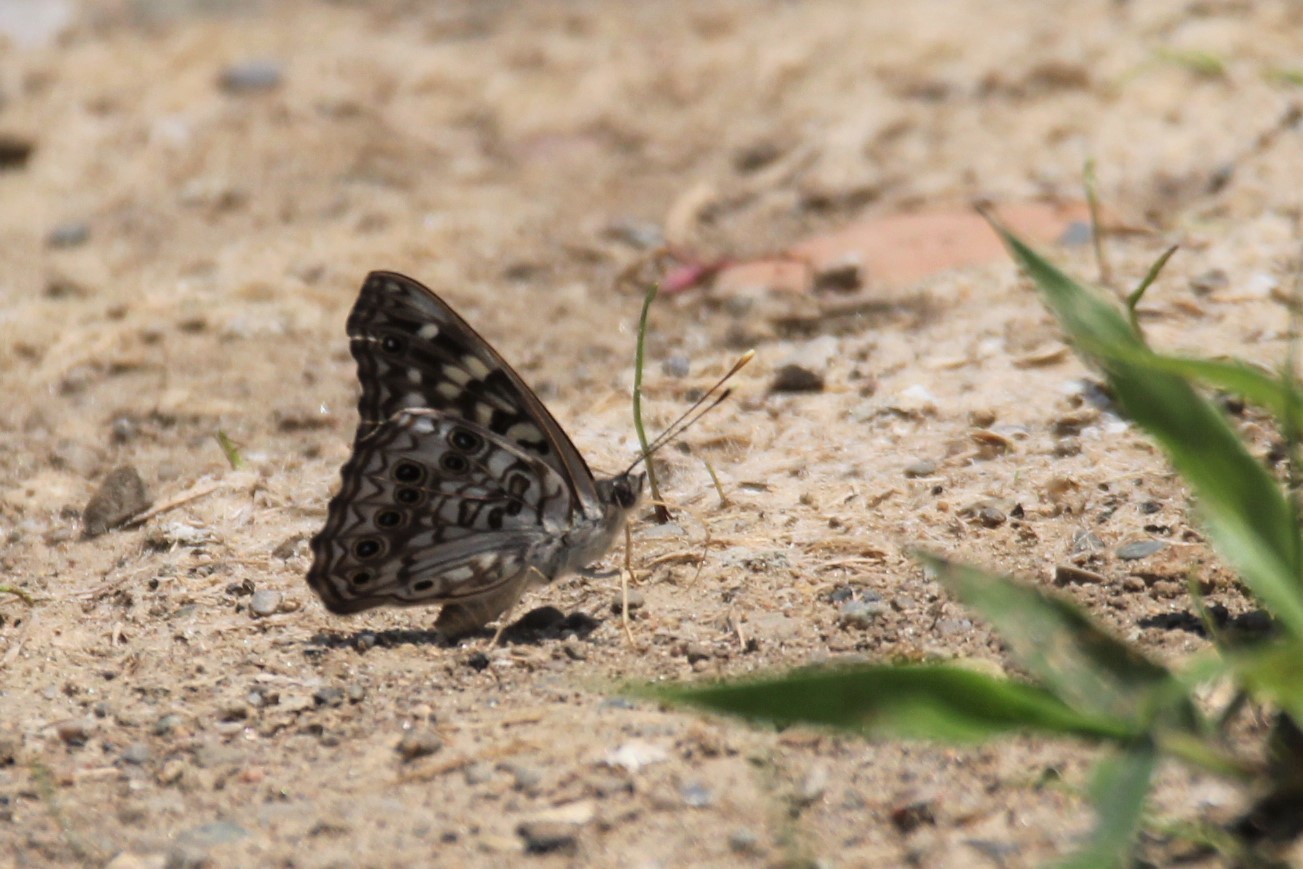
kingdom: Animalia
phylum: Arthropoda
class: Insecta
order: Lepidoptera
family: Nymphalidae
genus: Asterocampa
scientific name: Asterocampa celtis
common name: Hackberry emperor
